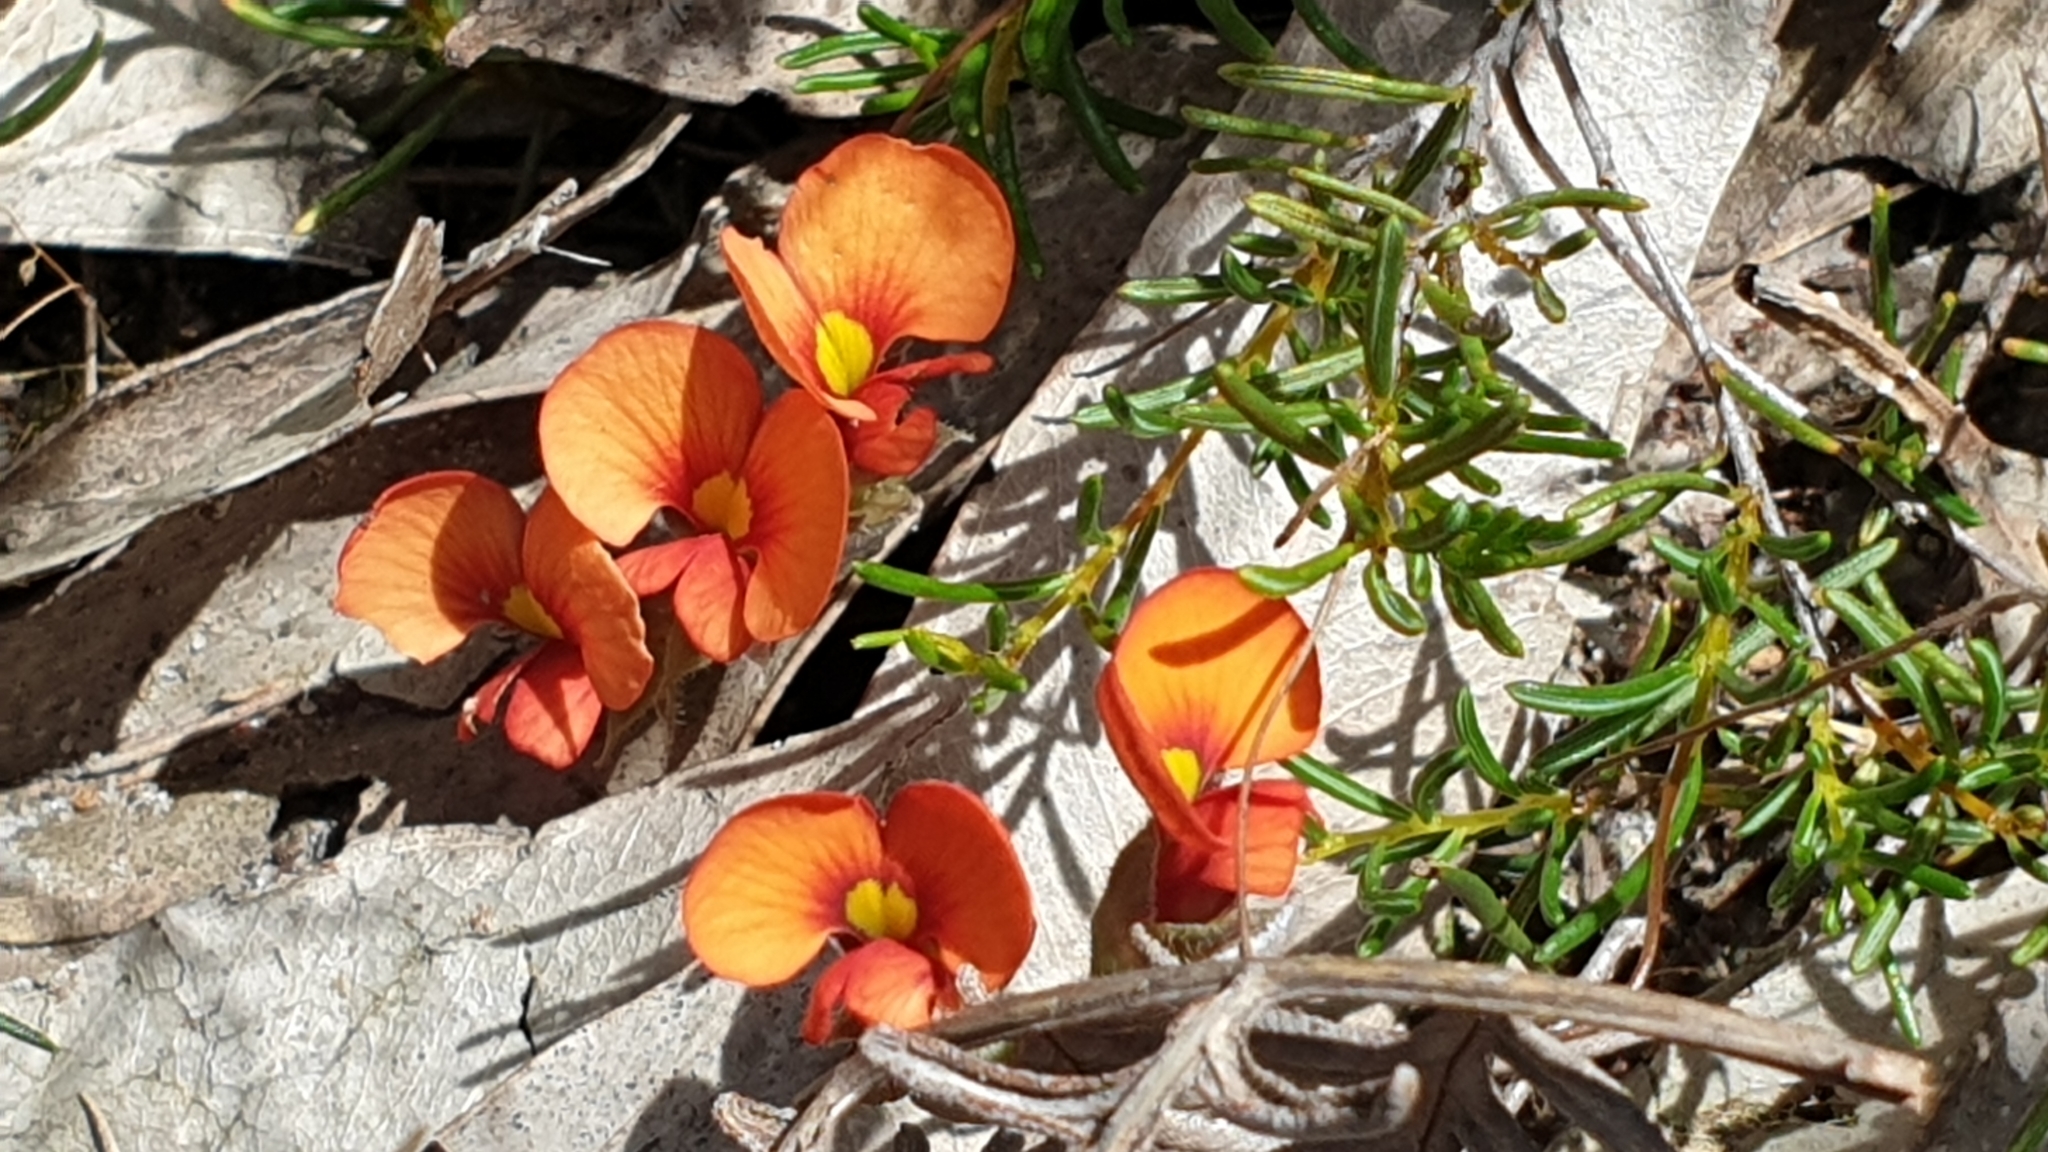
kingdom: Plantae
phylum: Tracheophyta
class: Magnoliopsida
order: Fabales
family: Fabaceae
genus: Dillwynia
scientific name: Dillwynia hispida
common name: Red parrot-pea
